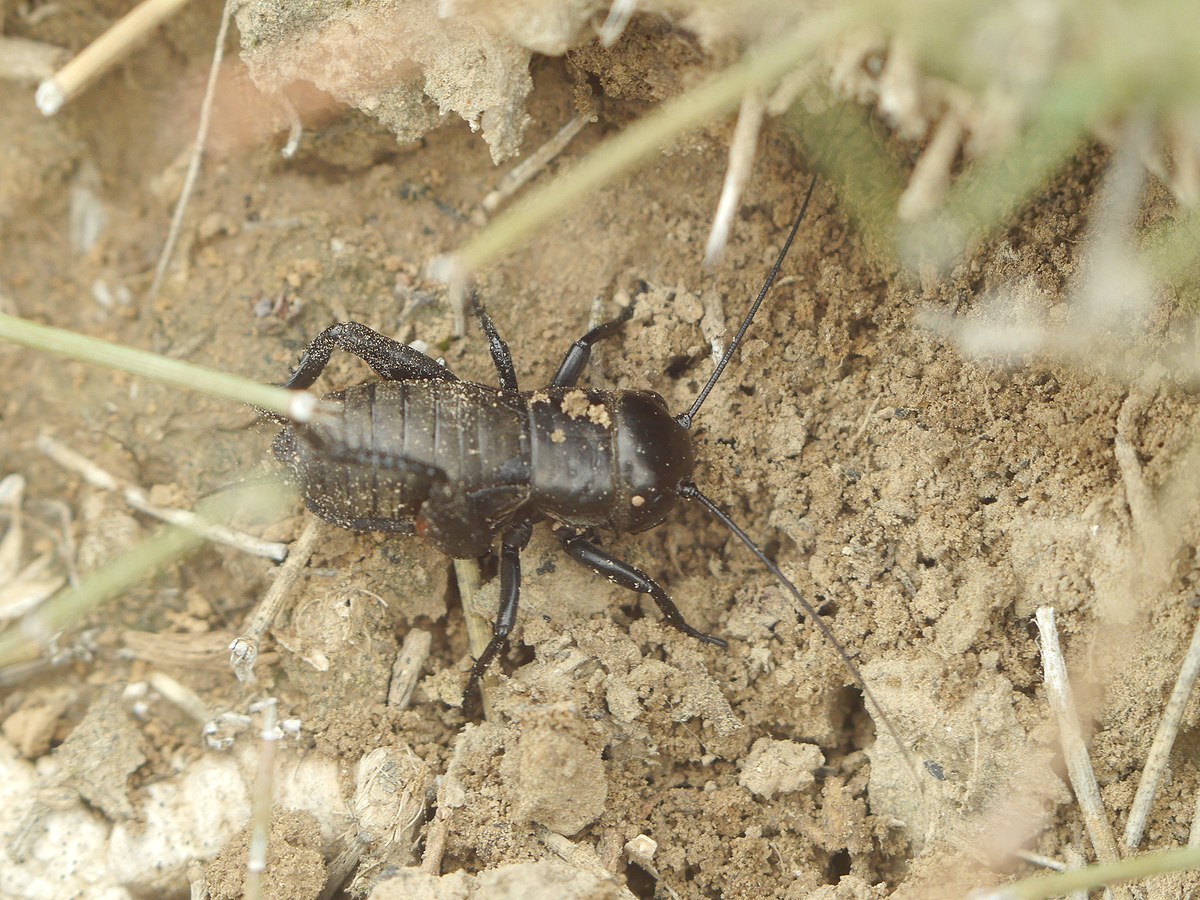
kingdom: Animalia
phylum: Arthropoda
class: Insecta
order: Orthoptera
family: Gryllidae
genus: Gryllus
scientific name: Gryllus campestris
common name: Field cricket
